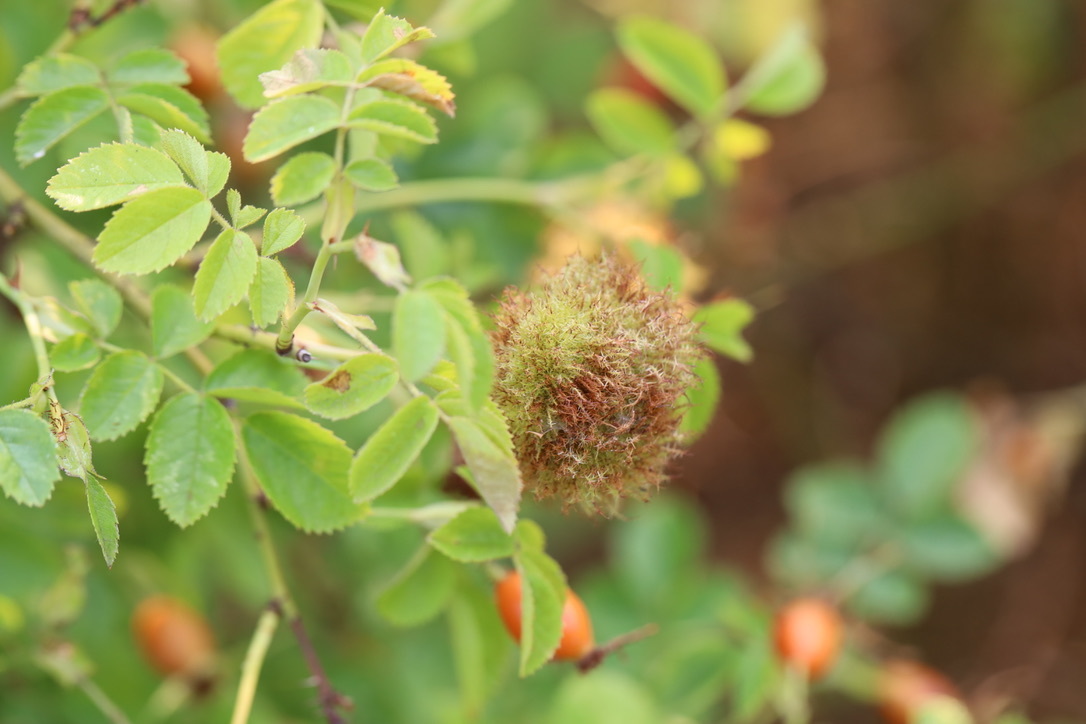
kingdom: Animalia
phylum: Arthropoda
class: Insecta
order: Hymenoptera
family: Cynipidae
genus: Diplolepis
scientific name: Diplolepis rosae
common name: Bedeguar gall
